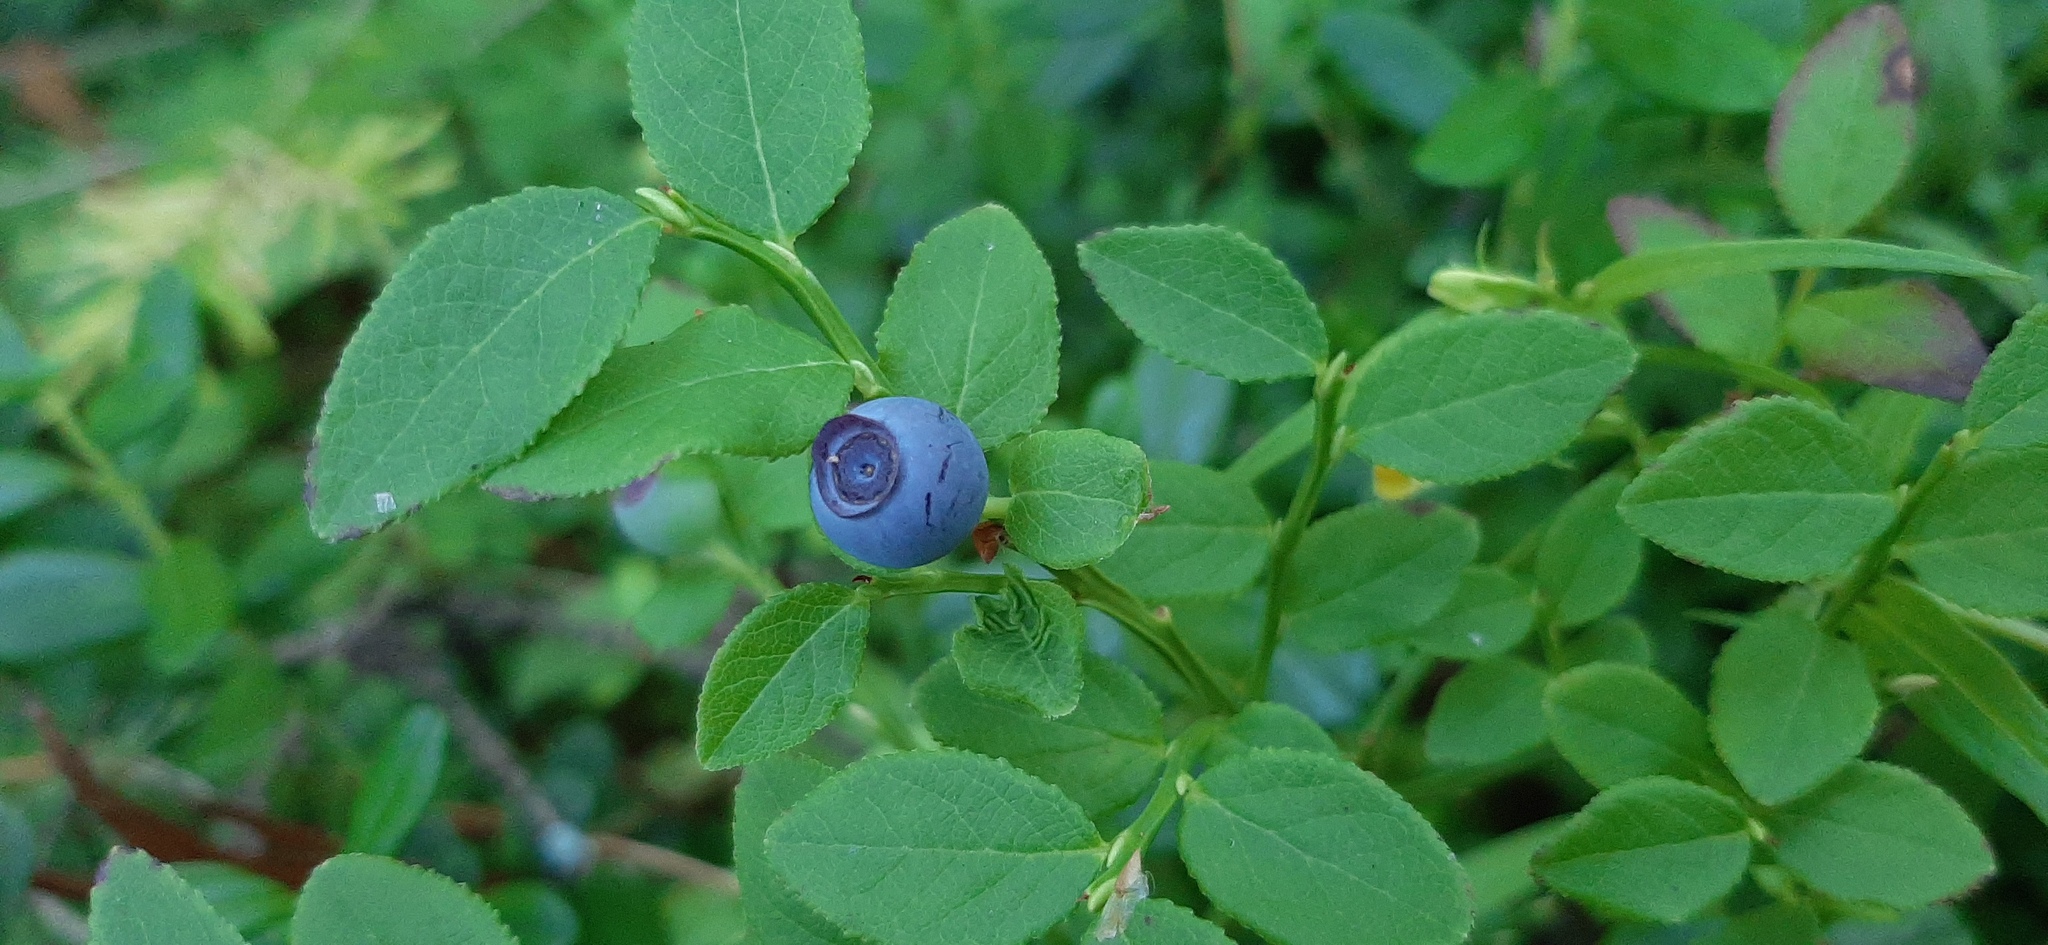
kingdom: Plantae
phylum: Tracheophyta
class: Magnoliopsida
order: Ericales
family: Ericaceae
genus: Vaccinium
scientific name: Vaccinium myrtillus
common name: Bilberry
